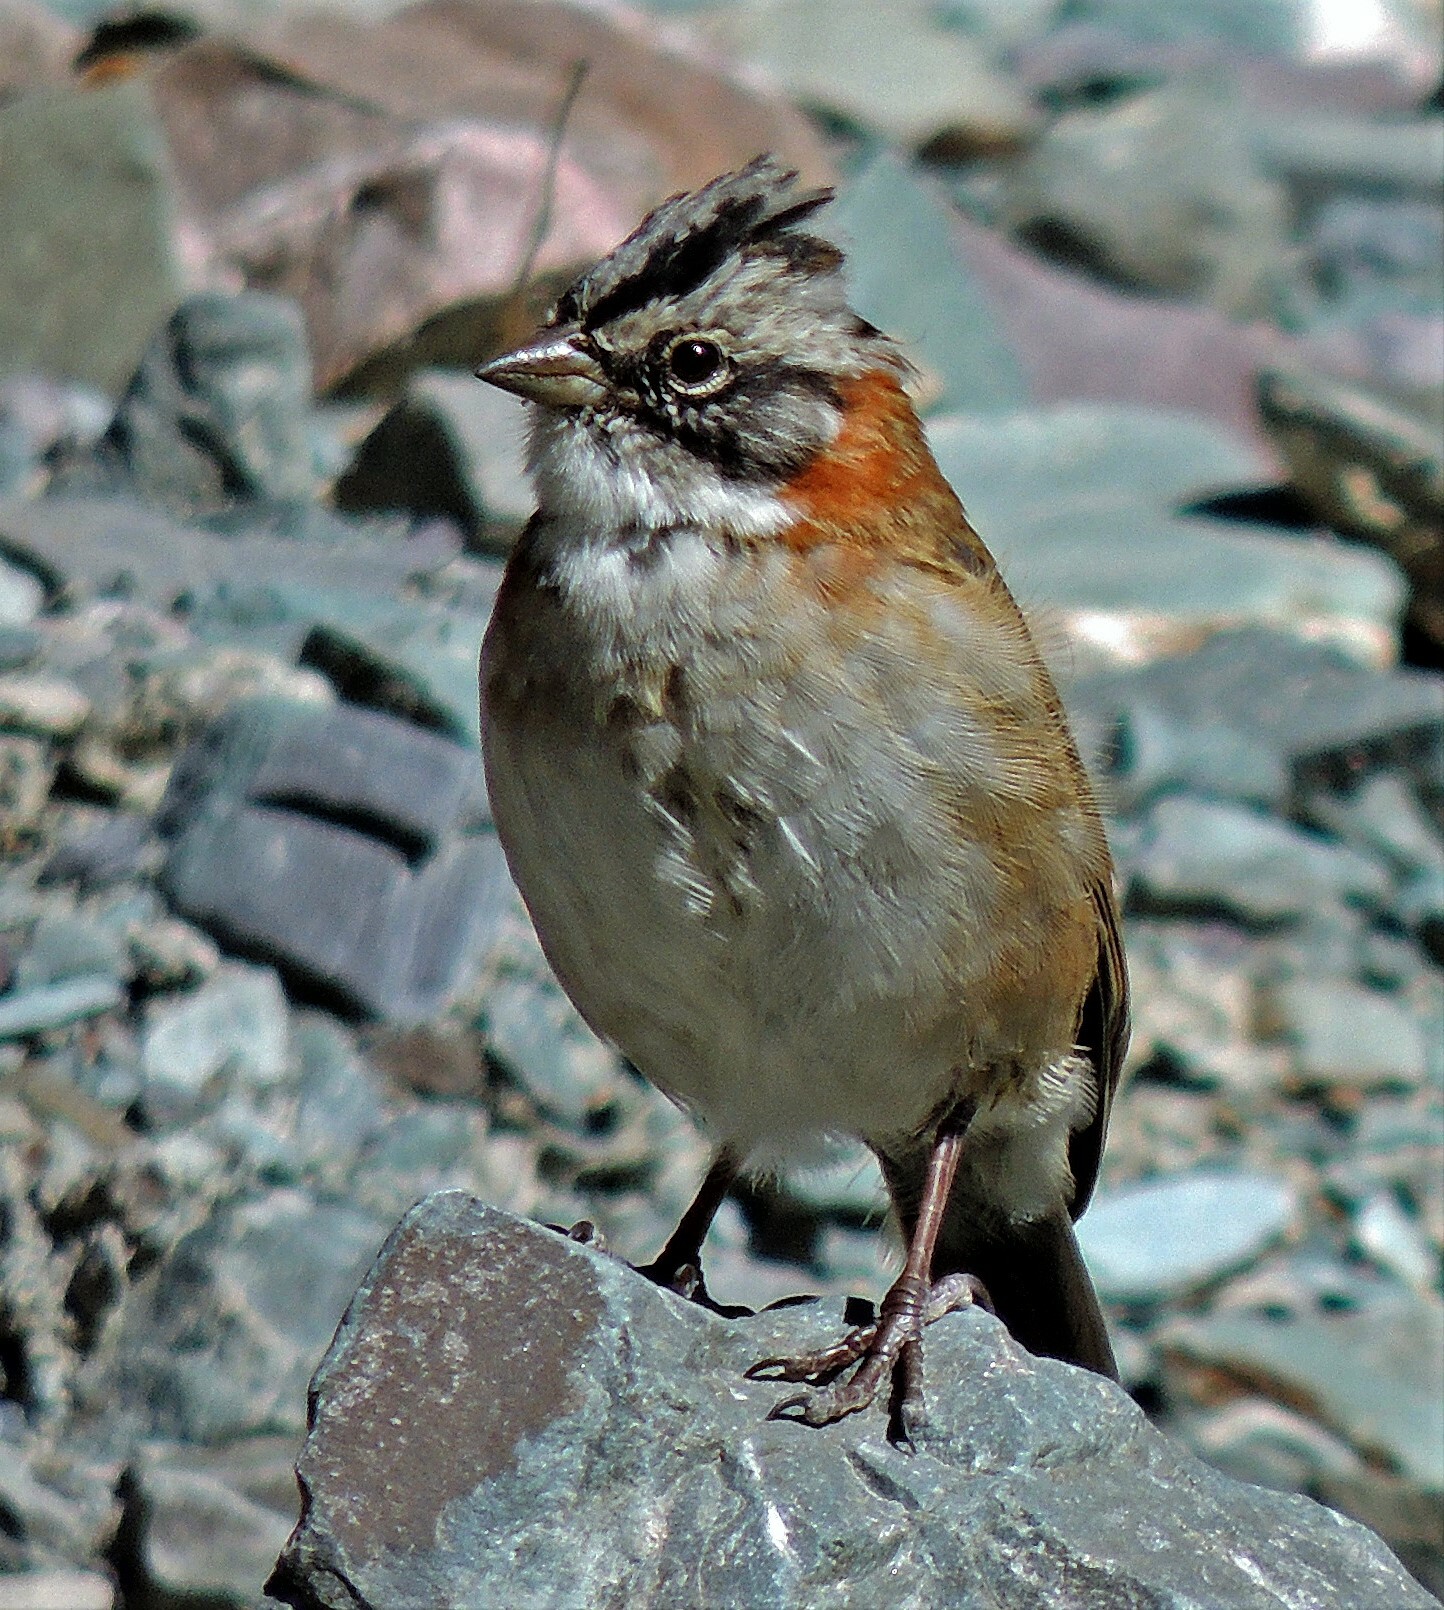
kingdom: Animalia
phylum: Chordata
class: Aves
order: Passeriformes
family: Passerellidae
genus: Zonotrichia
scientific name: Zonotrichia capensis
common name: Rufous-collared sparrow
